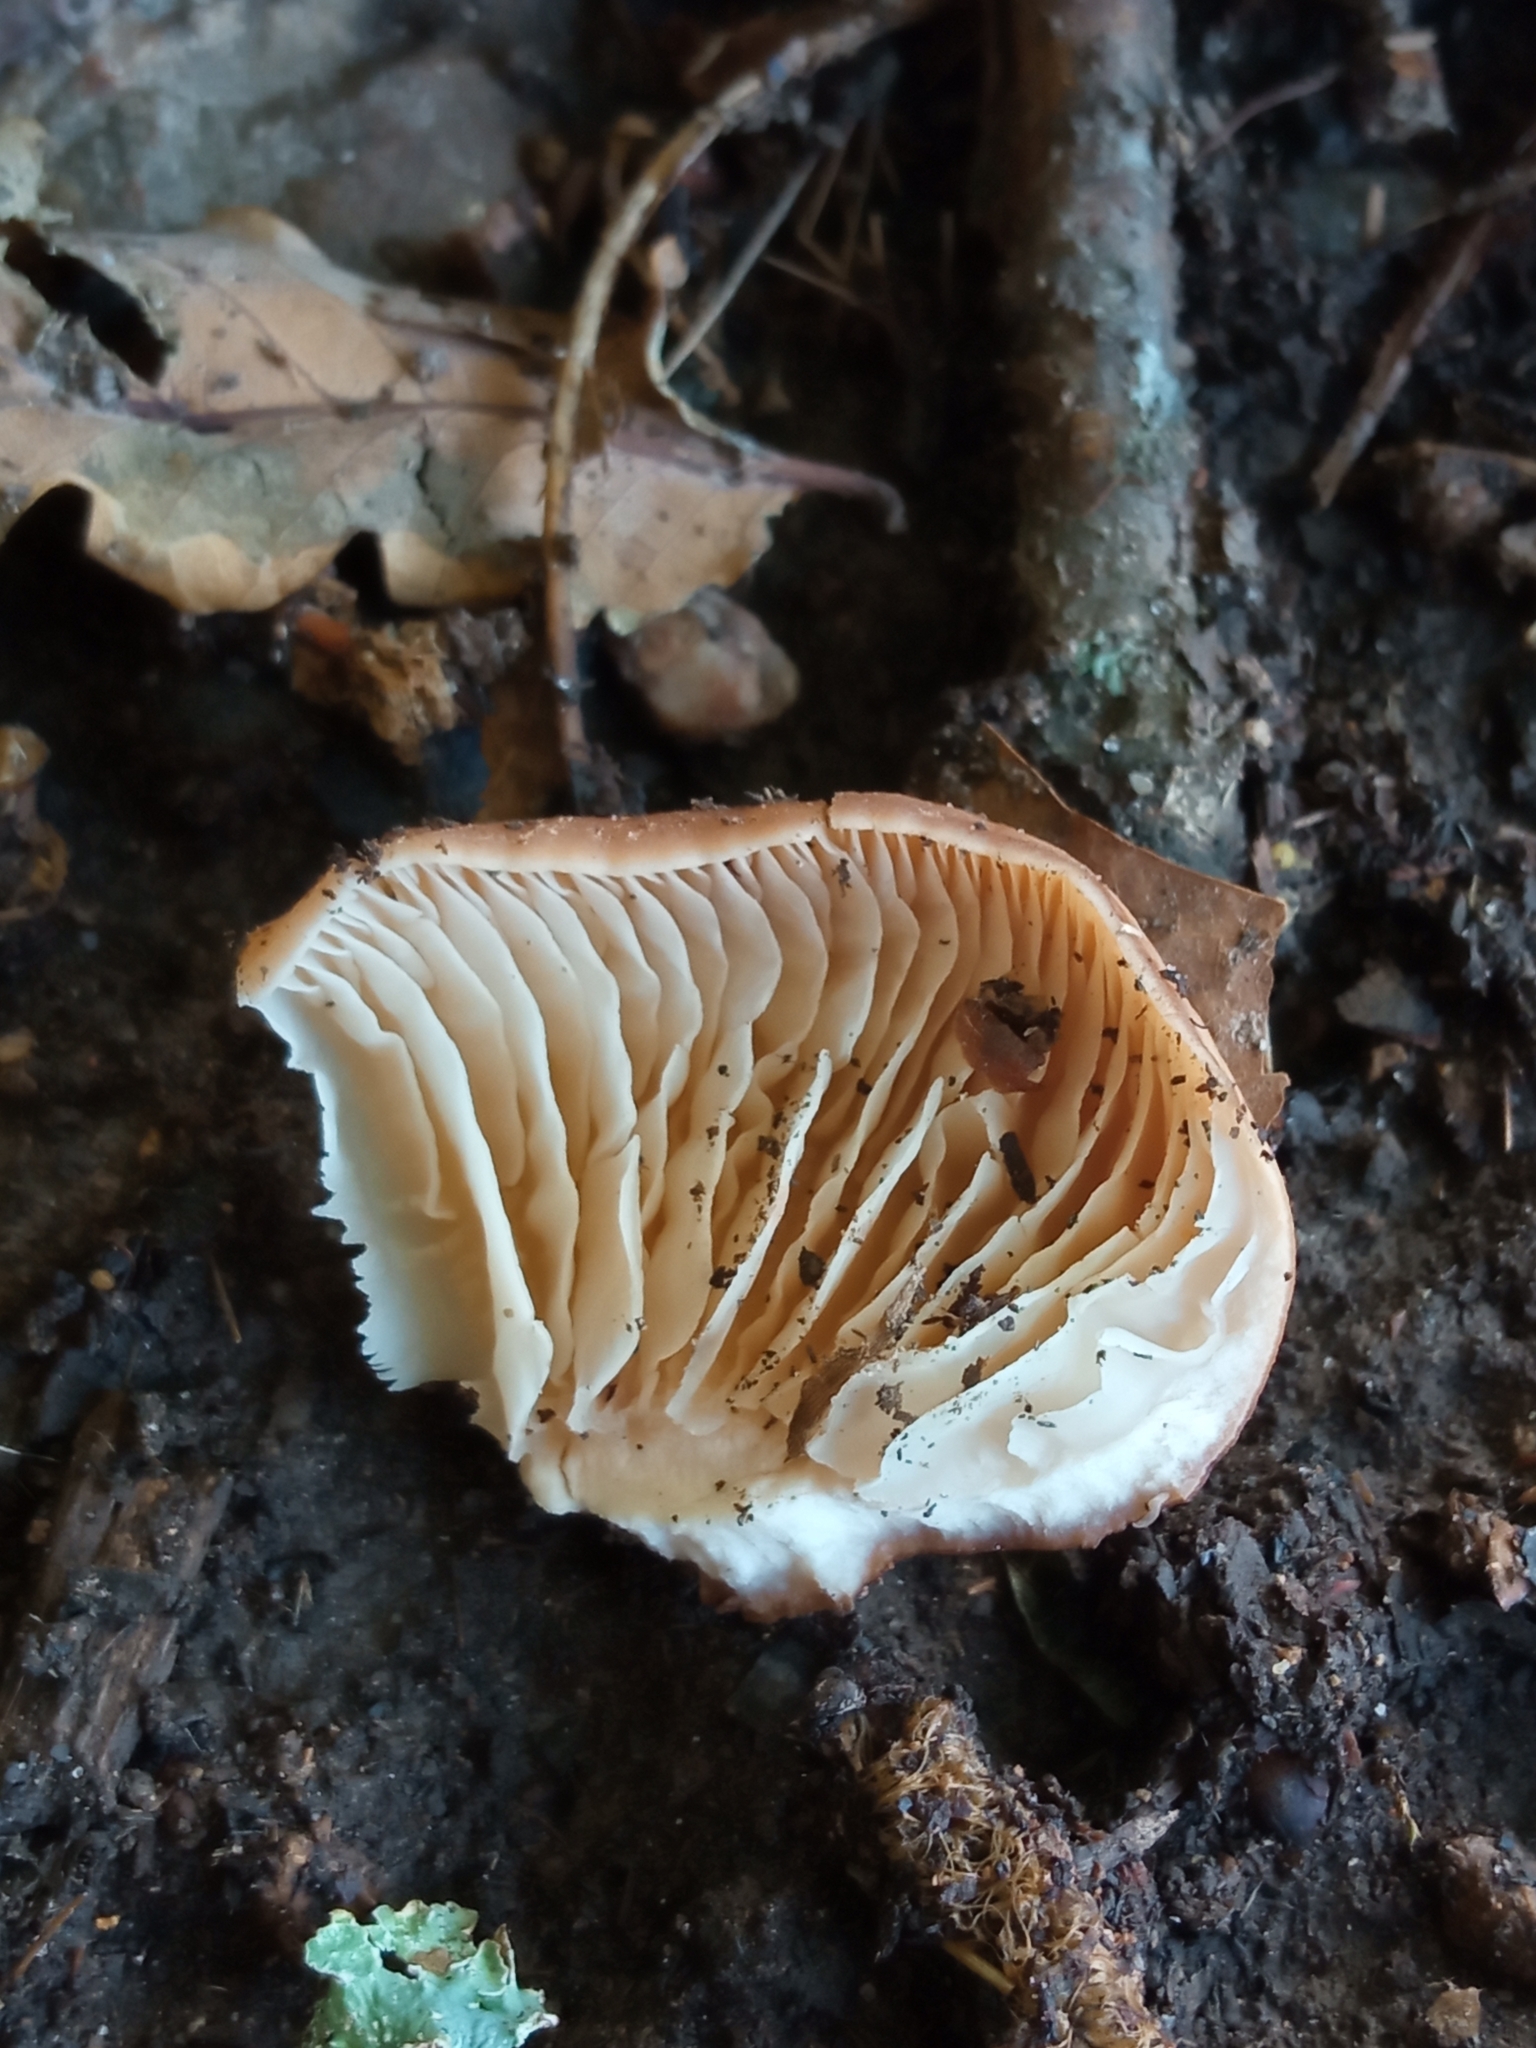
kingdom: Fungi
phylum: Basidiomycota
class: Agaricomycetes
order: Agaricales
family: Omphalotaceae
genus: Gymnopus
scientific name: Gymnopus fusipes
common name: Spindle shank
